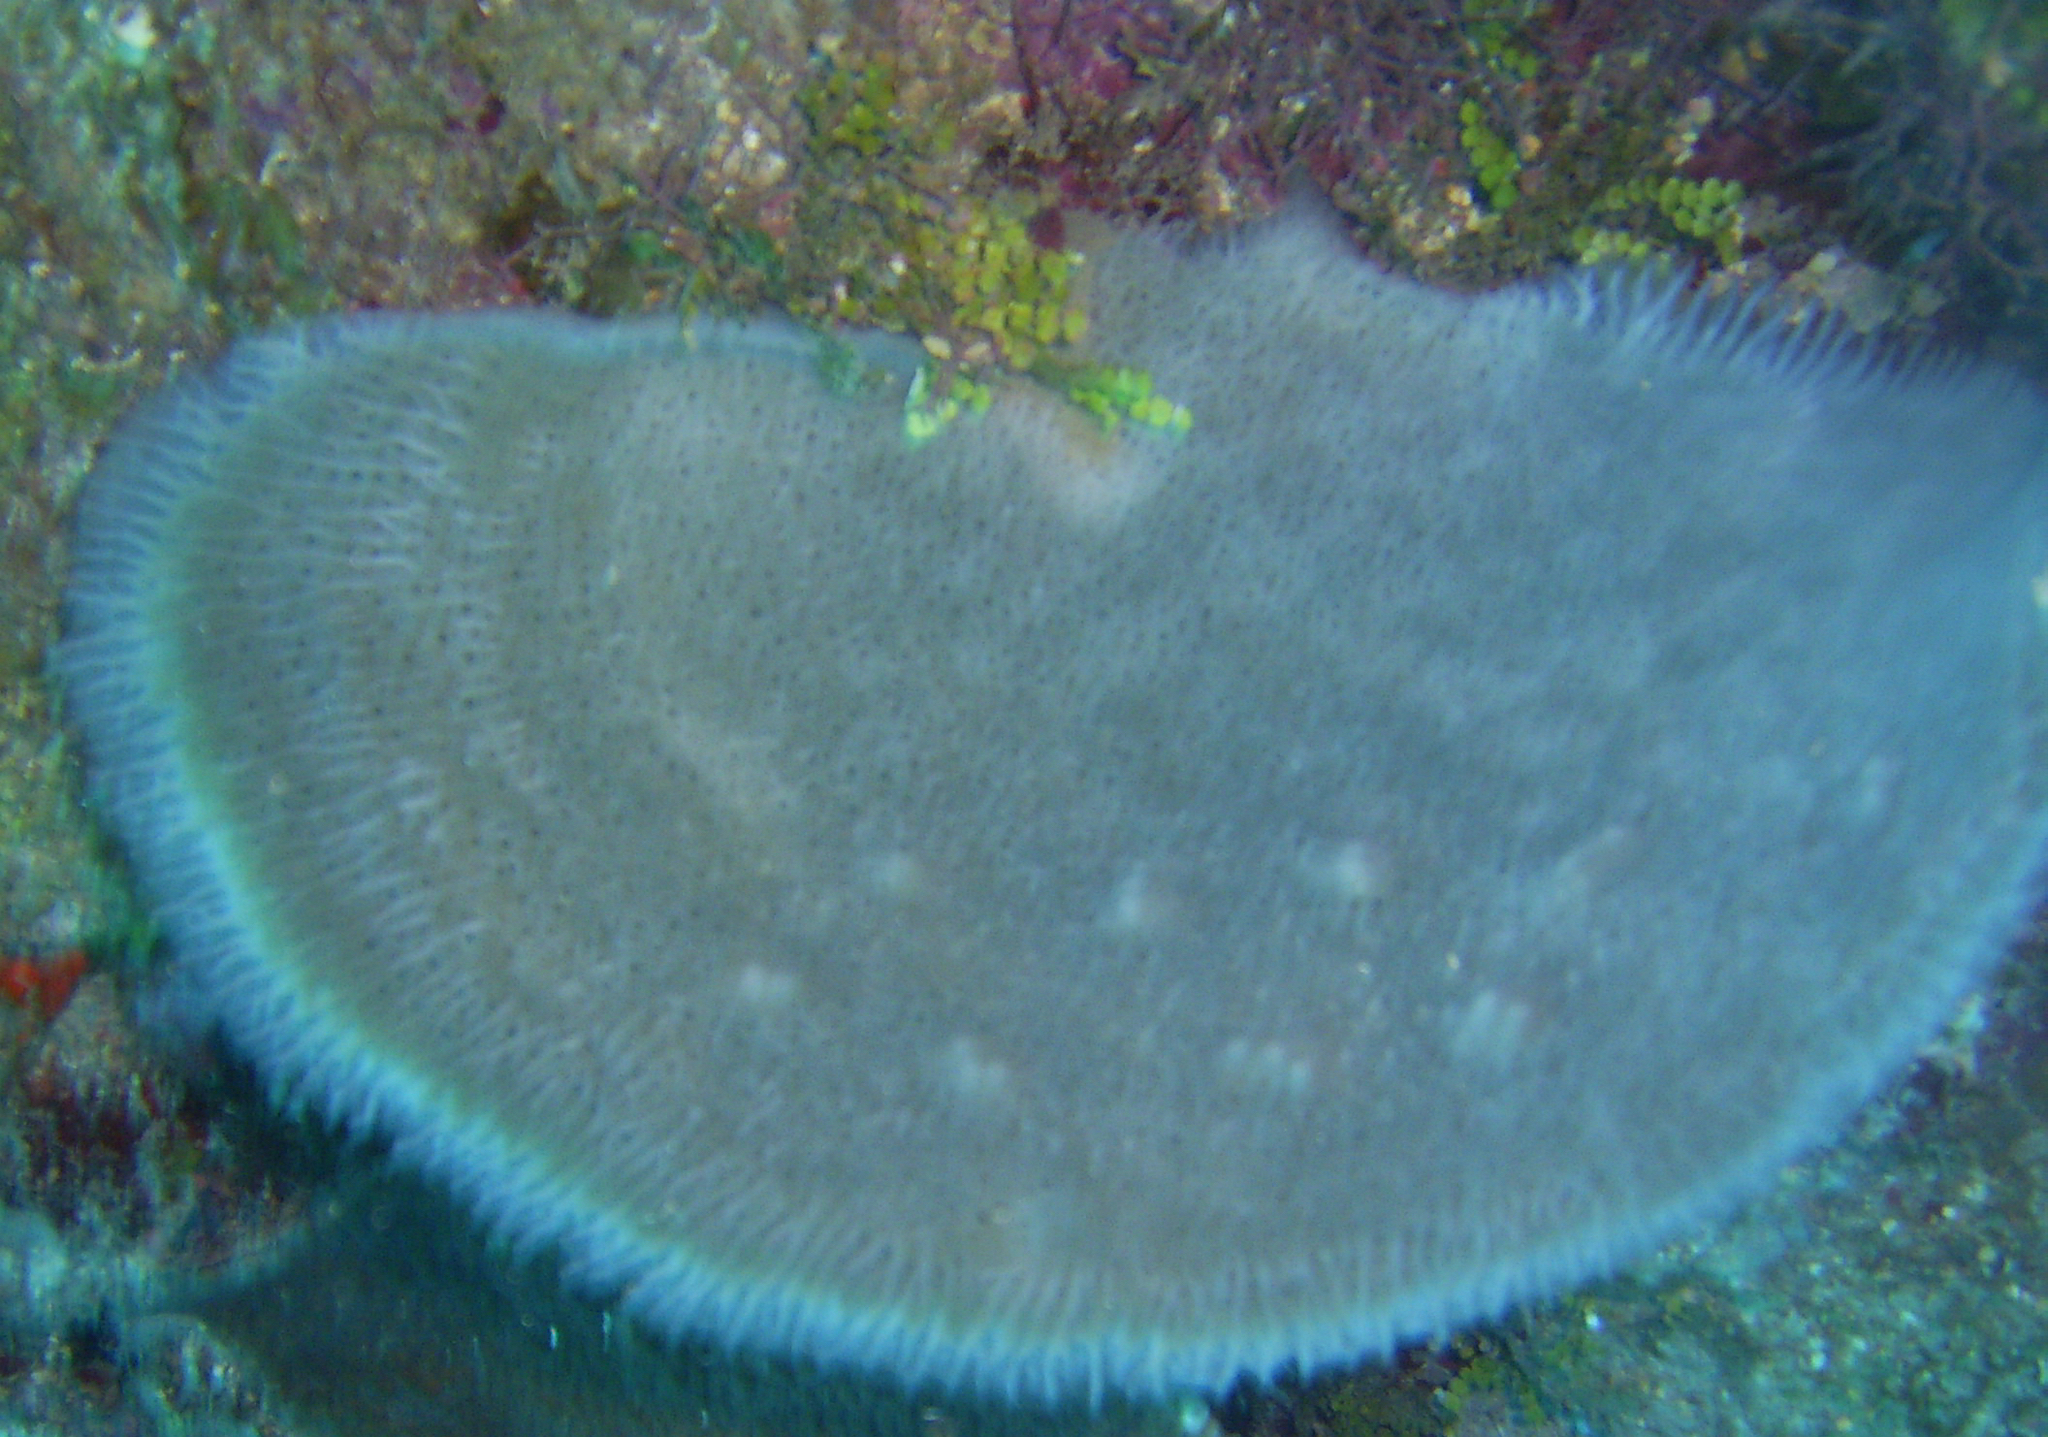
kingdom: Animalia
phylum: Porifera
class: Demospongiae
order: Haplosclerida
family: Niphatidae
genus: Niphates
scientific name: Niphates digitalis
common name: Pink vase sponge
